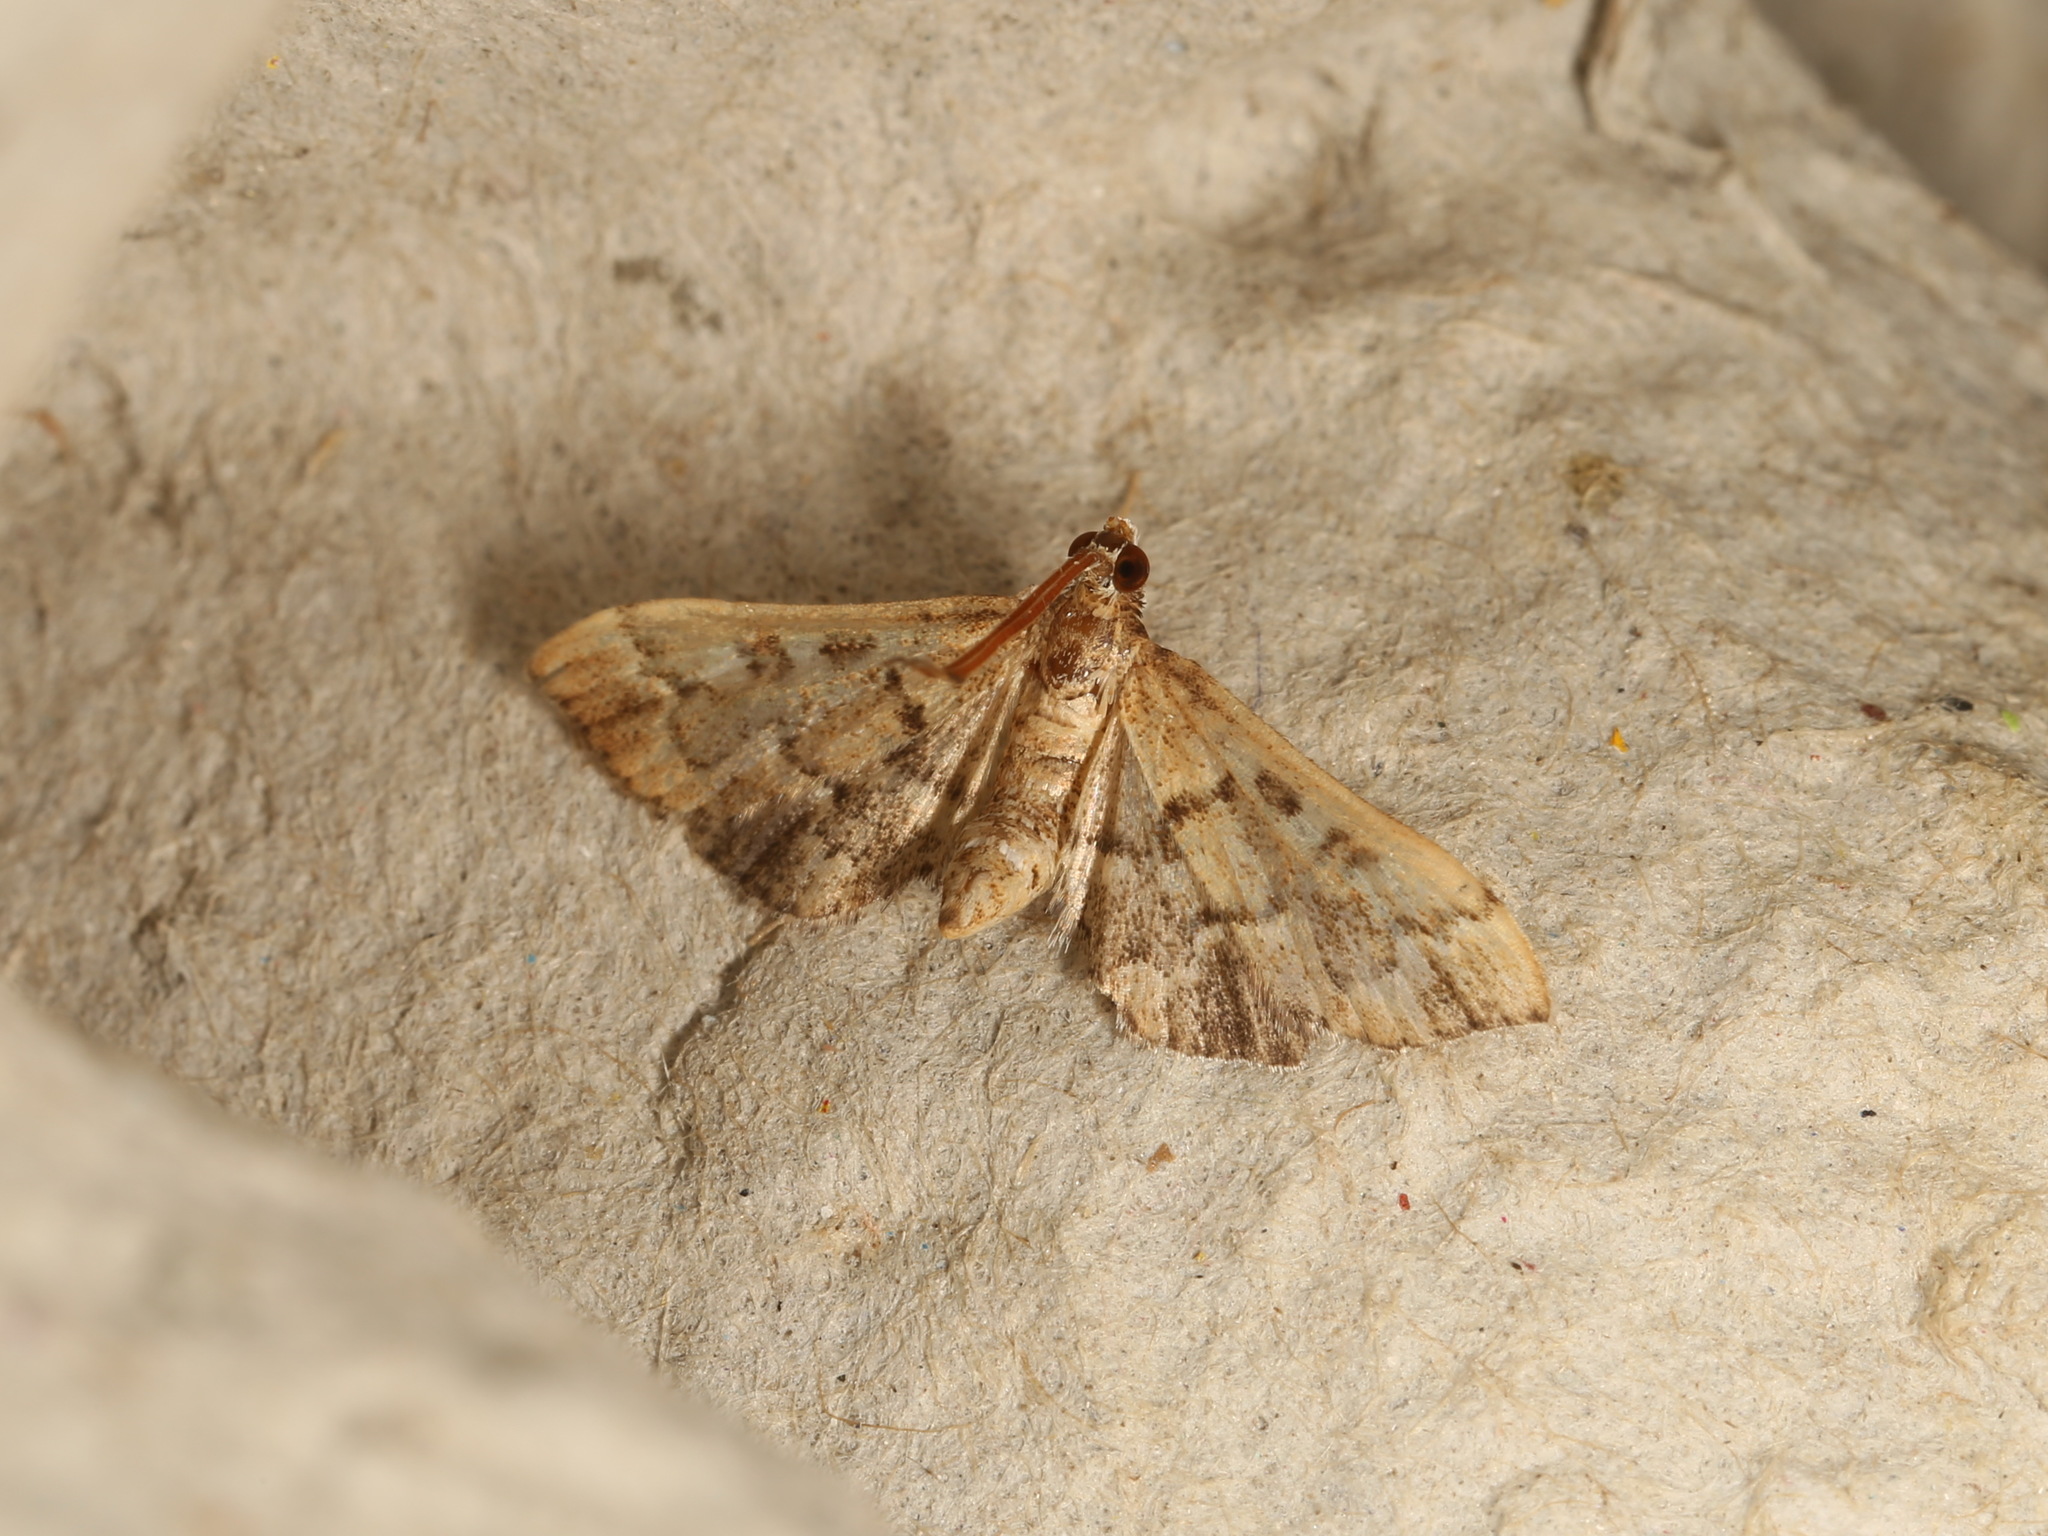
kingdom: Animalia
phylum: Arthropoda
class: Insecta
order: Lepidoptera
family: Crambidae
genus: Nacoleia
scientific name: Nacoleia rhoeoalis
